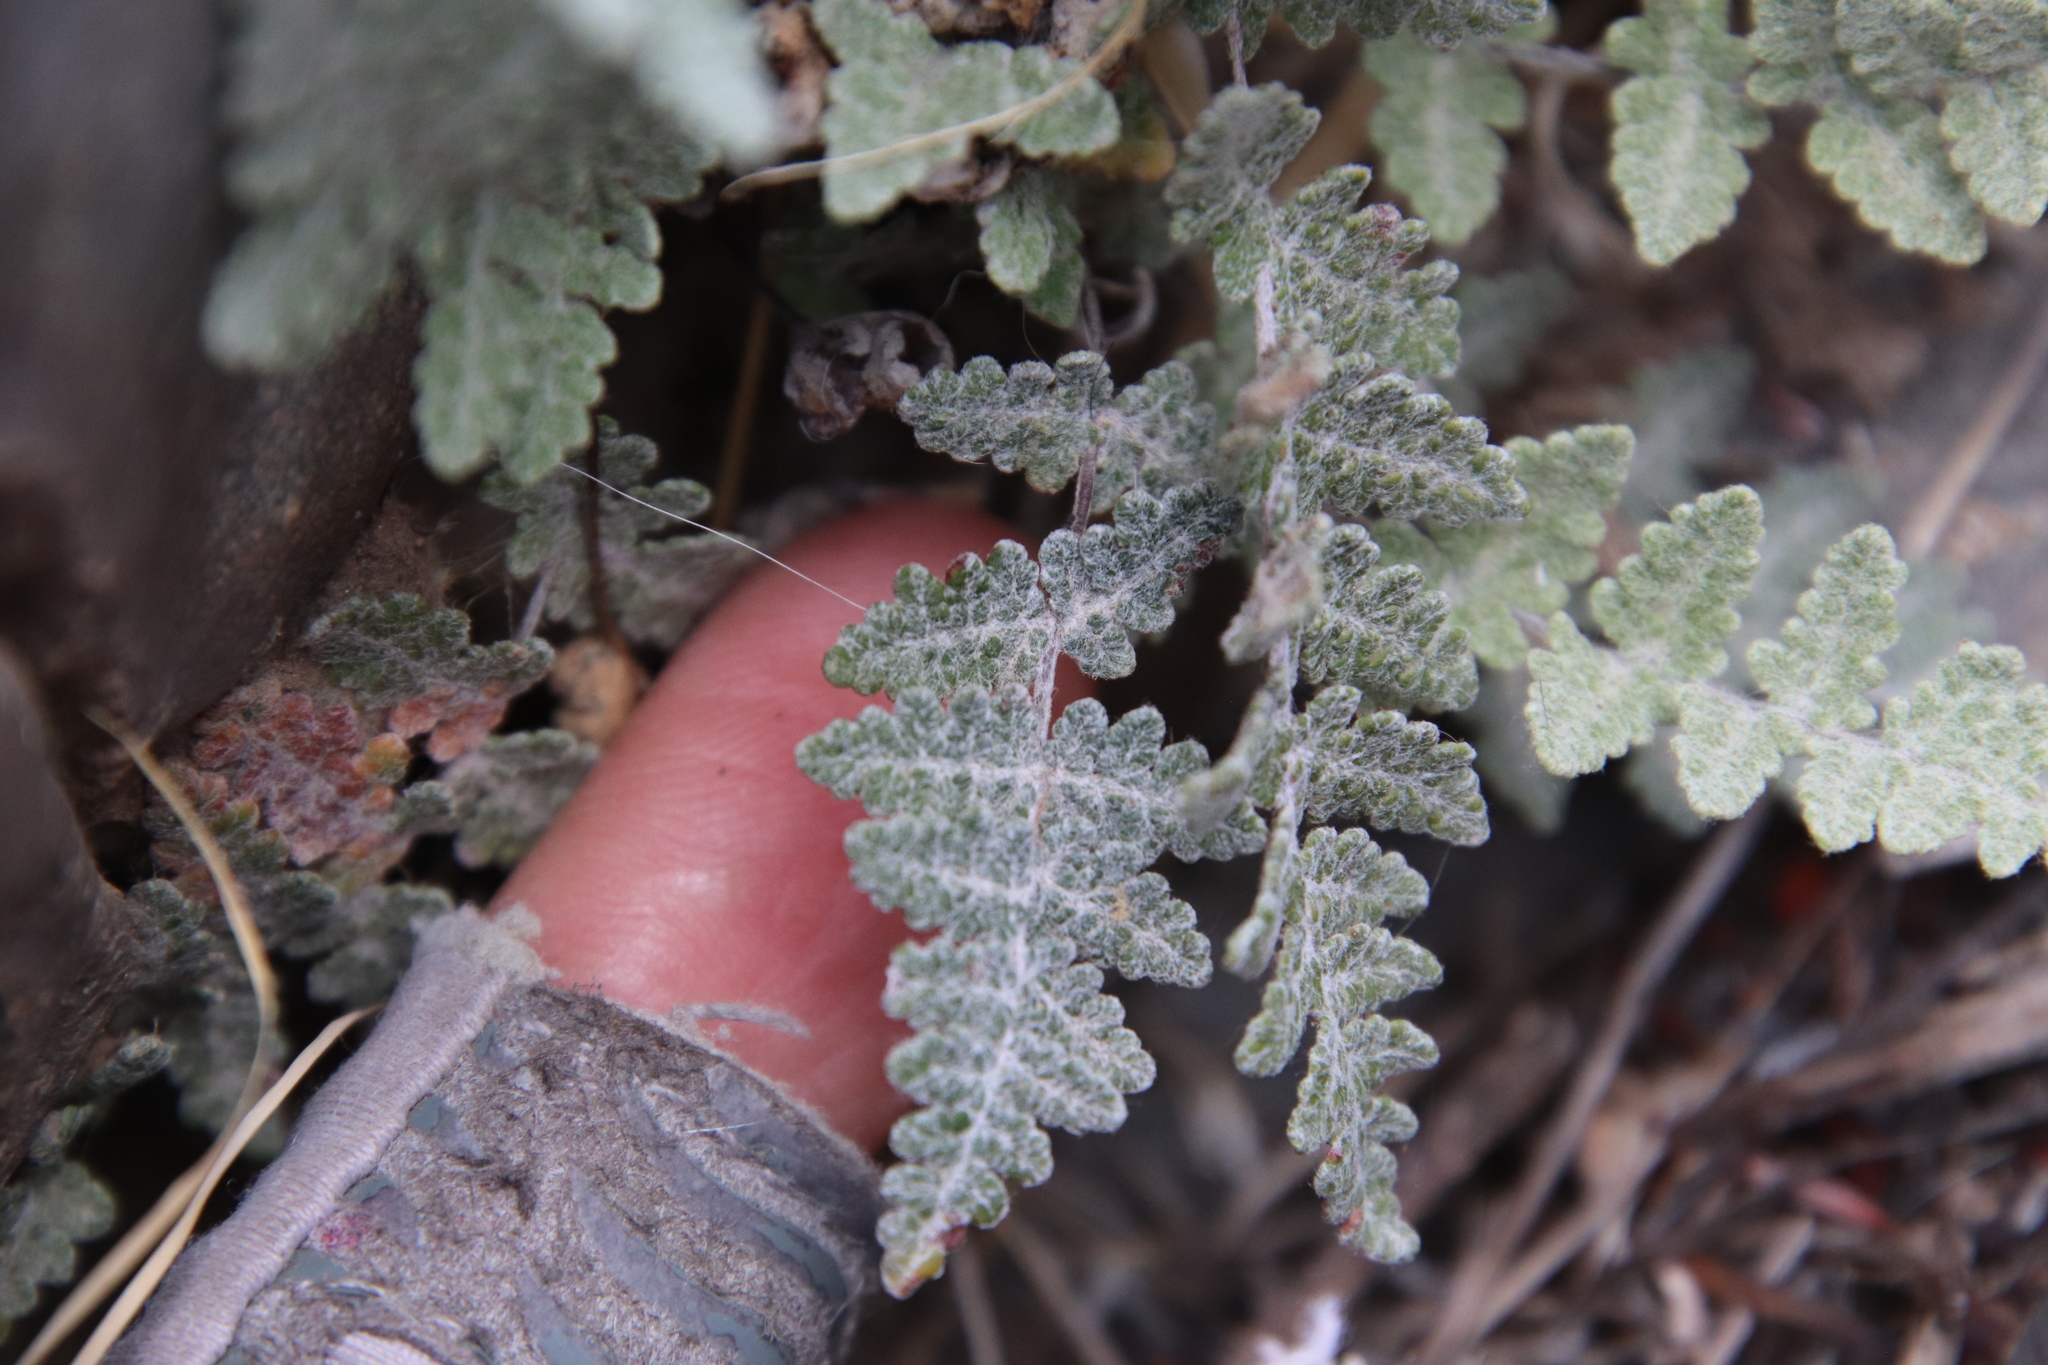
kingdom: Plantae
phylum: Tracheophyta
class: Polypodiopsida
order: Polypodiales
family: Pteridaceae
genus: Myriopteris
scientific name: Myriopteris newberryi
